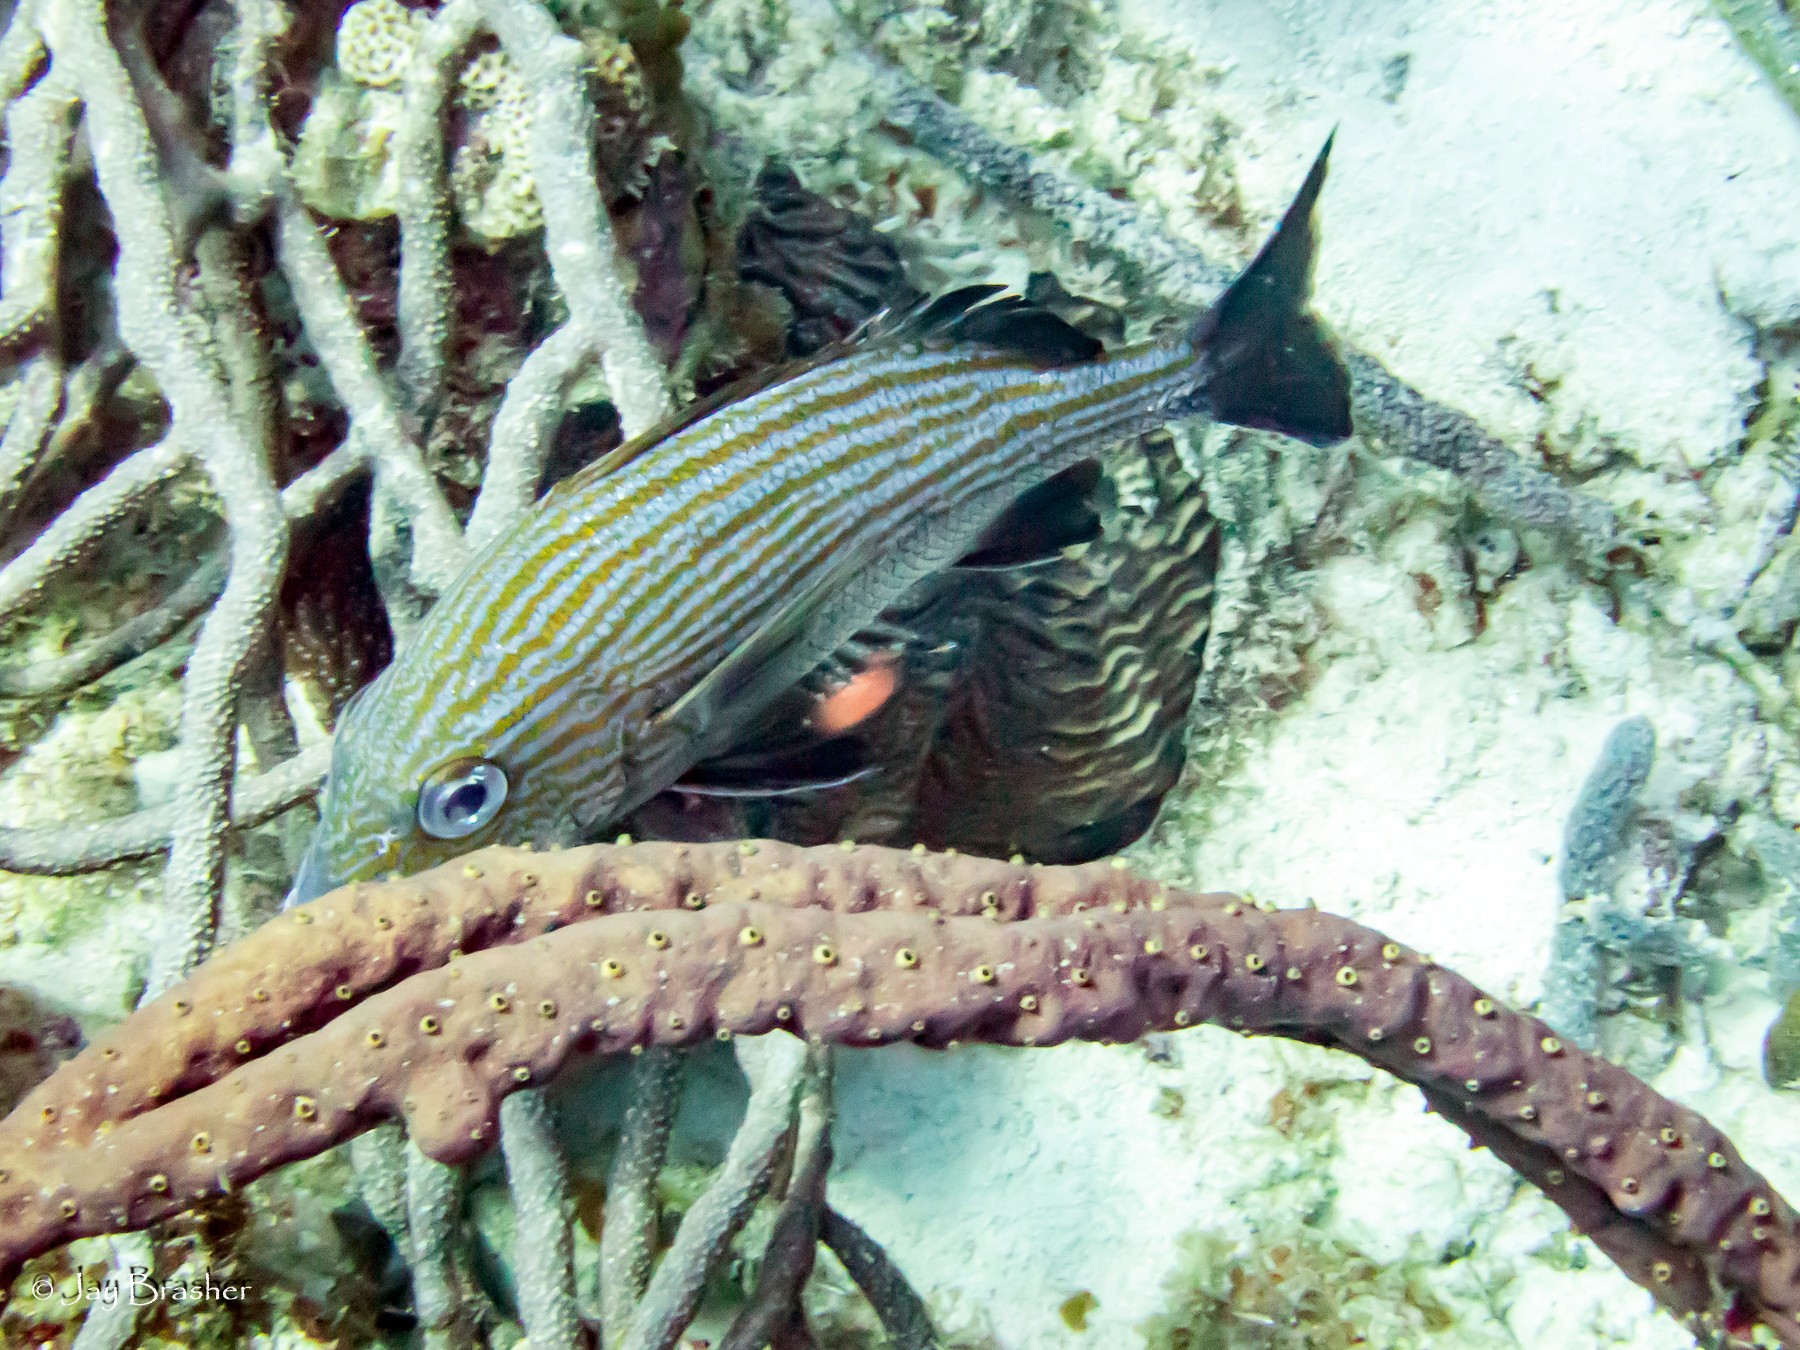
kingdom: Animalia
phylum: Chordata
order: Perciformes
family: Haemulidae
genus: Haemulon
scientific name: Haemulon carbonarium
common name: Caesar grunt
